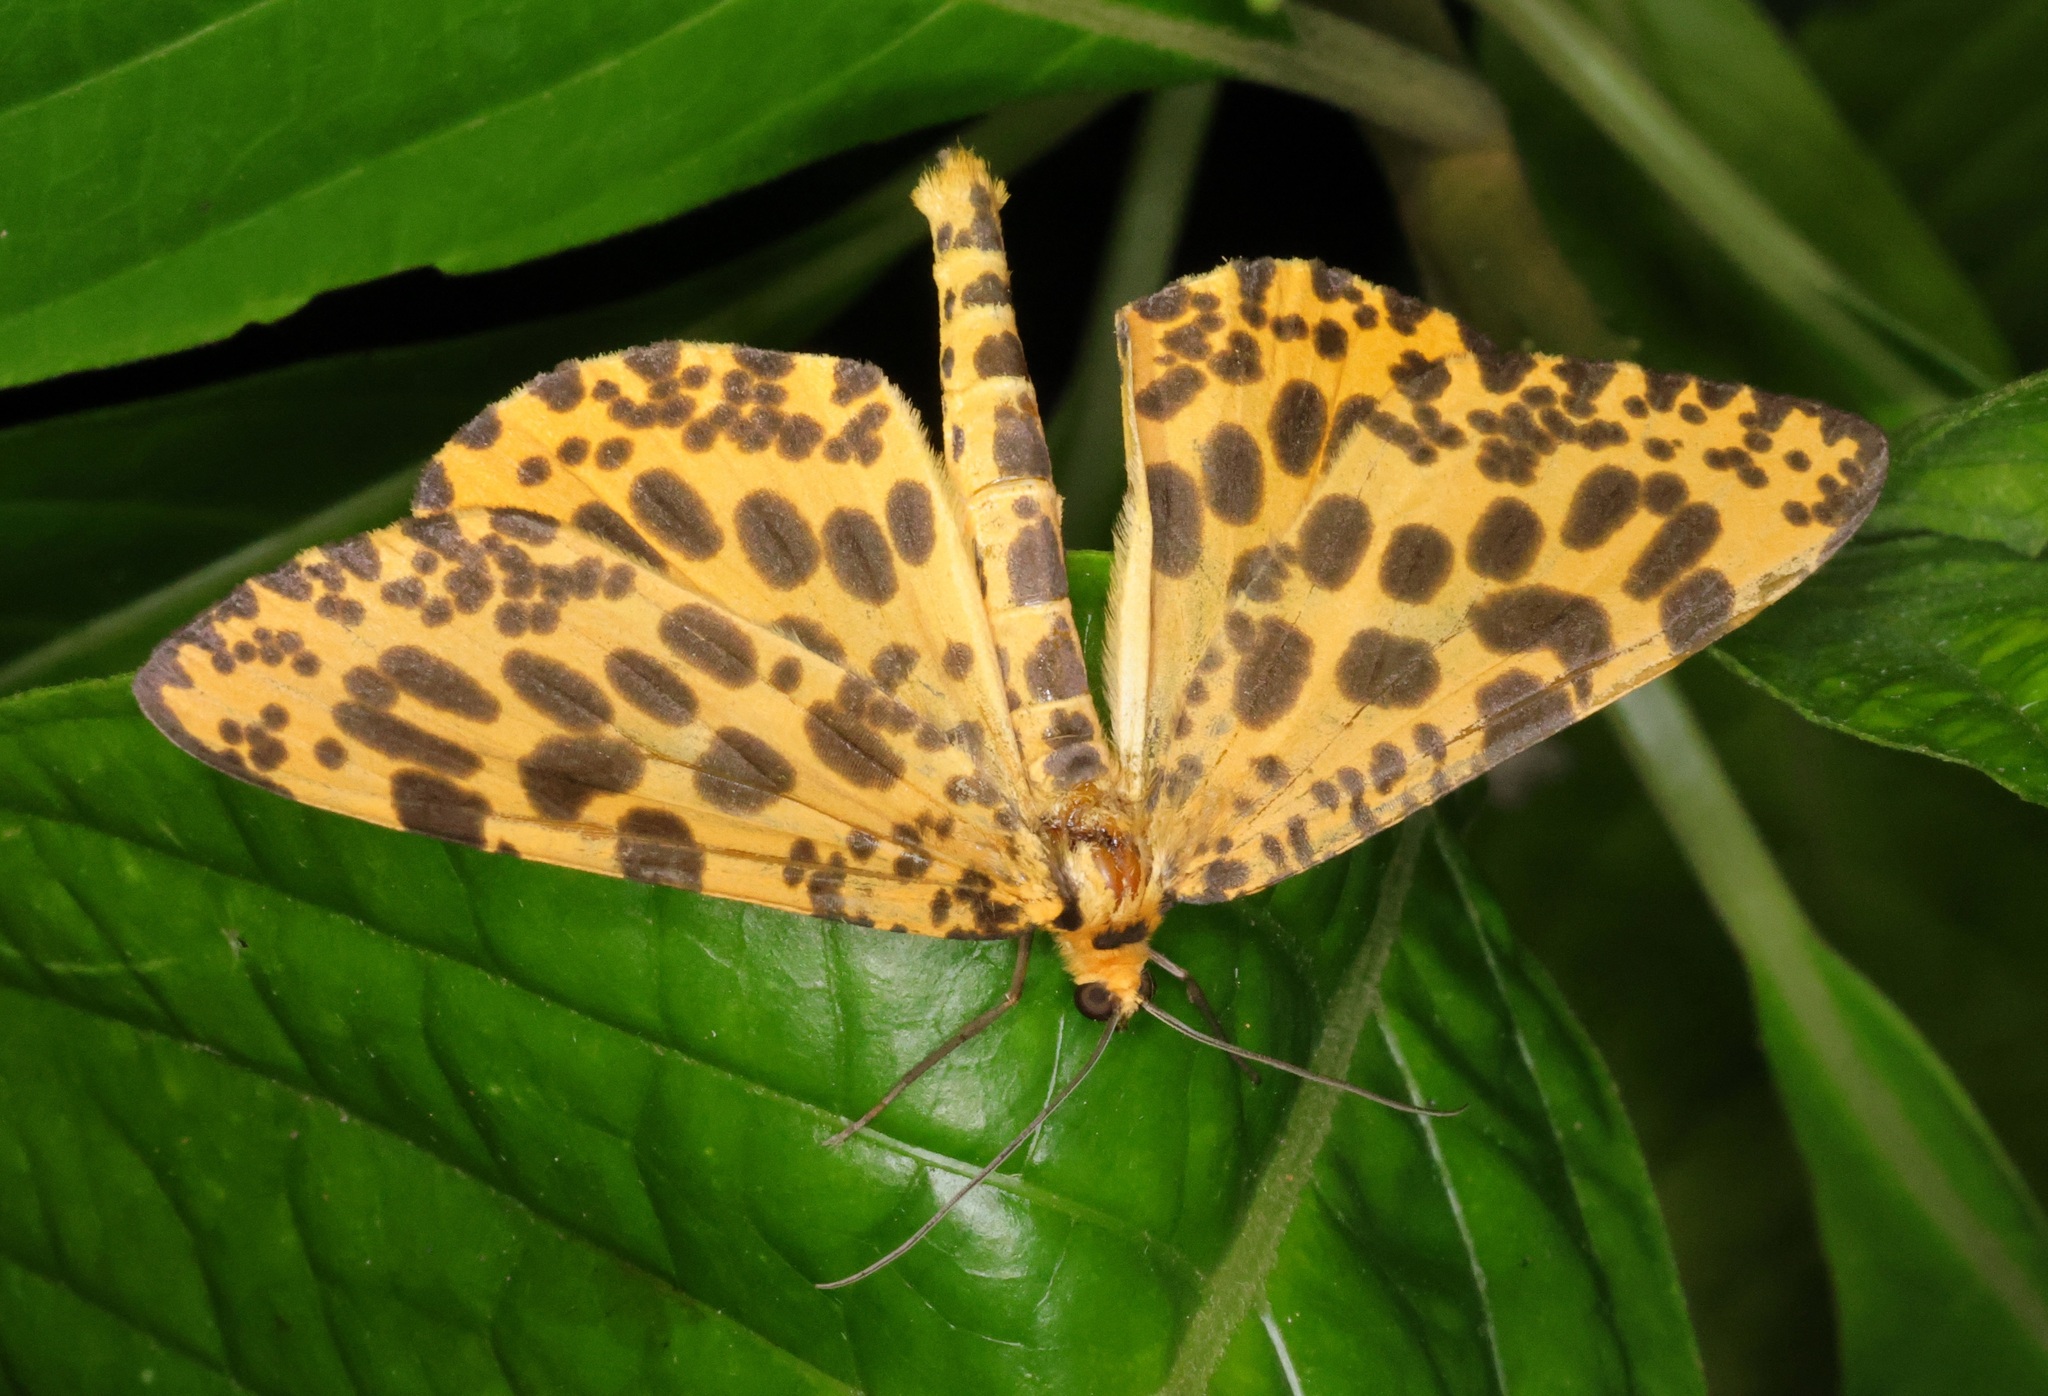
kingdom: Animalia
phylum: Arthropoda
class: Insecta
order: Lepidoptera
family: Geometridae
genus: Obeidia
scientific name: Obeidia Epobeidia tigrata
